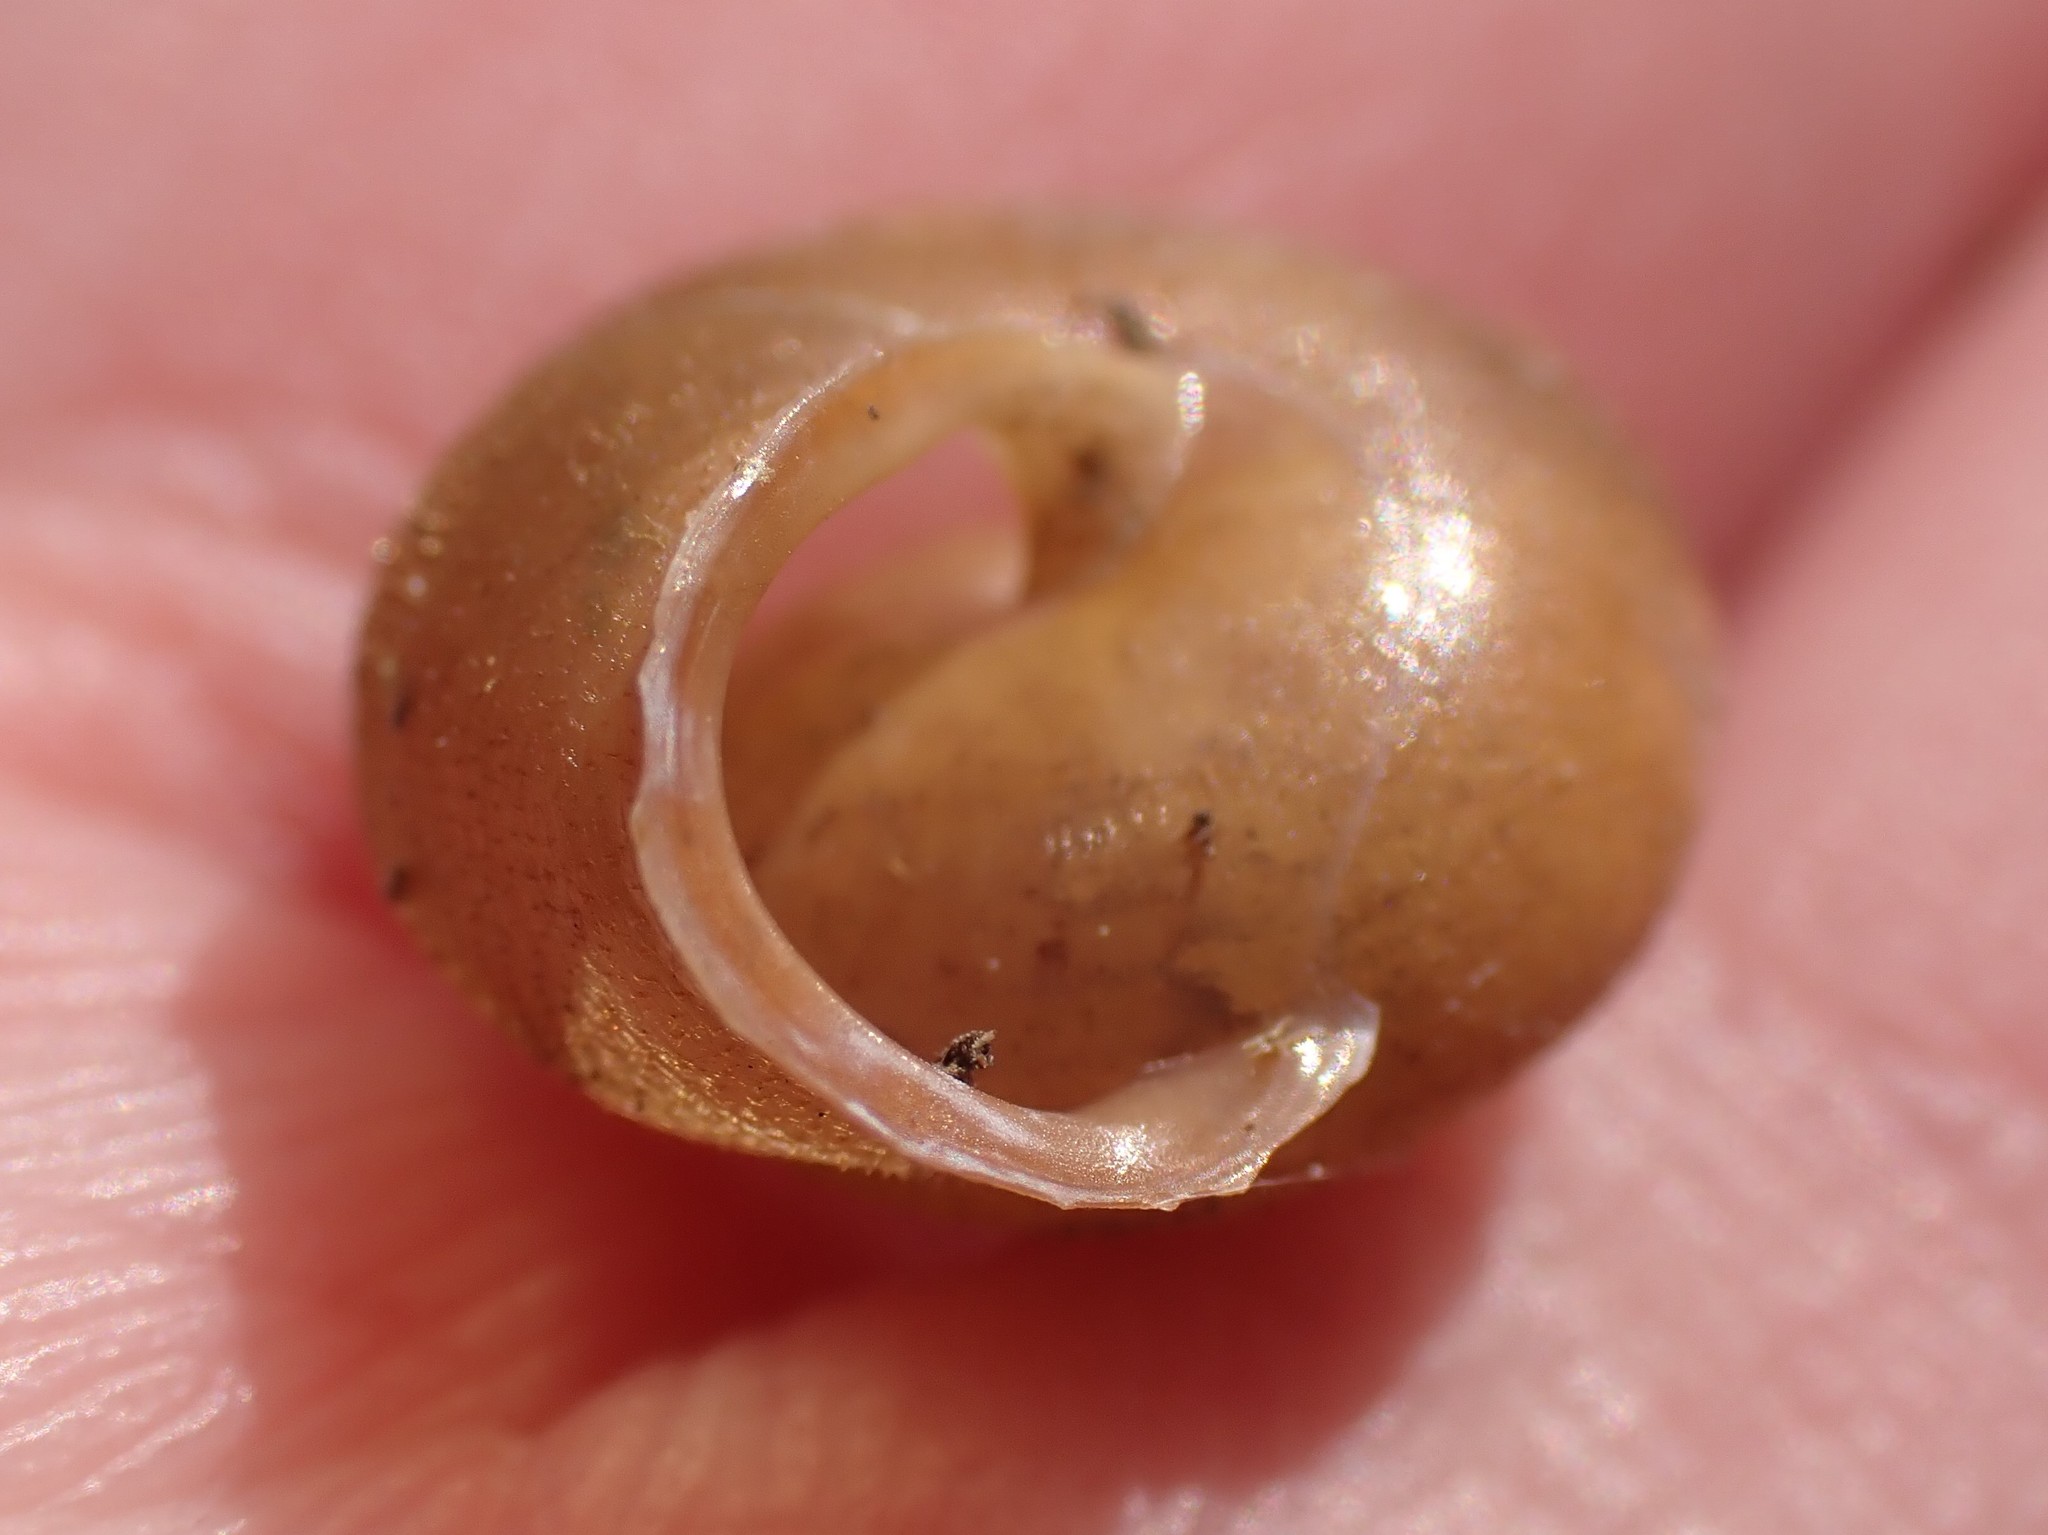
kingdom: Animalia
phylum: Mollusca
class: Gastropoda
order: Stylommatophora
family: Polygyridae
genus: Vespericola
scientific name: Vespericola columbianus
